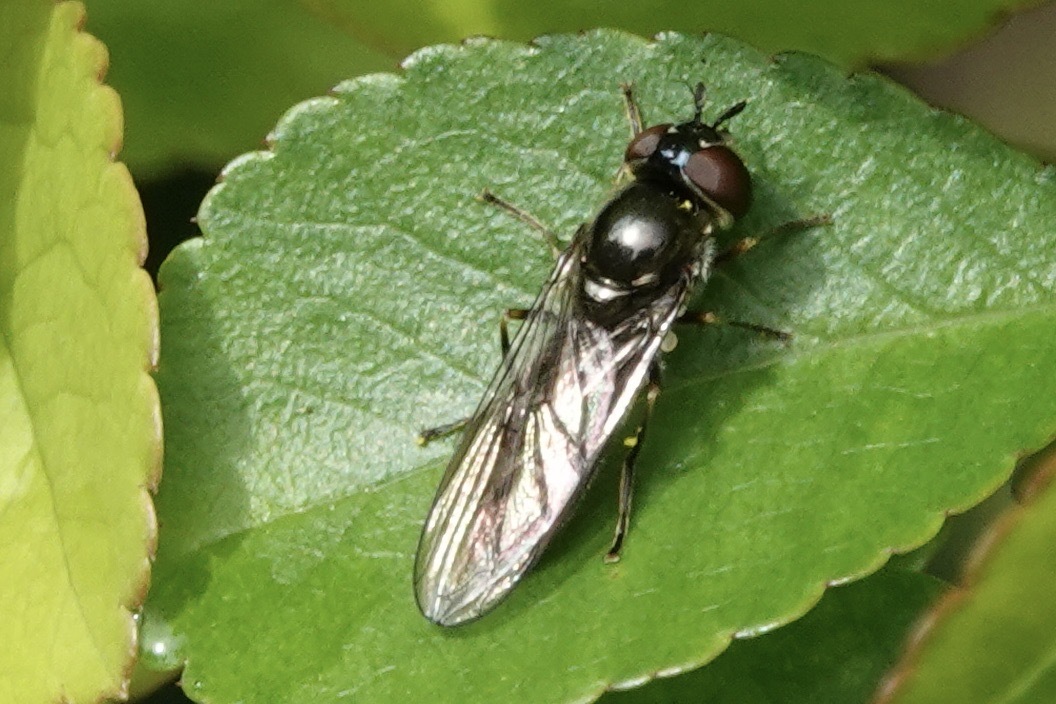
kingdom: Animalia
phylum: Arthropoda
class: Insecta
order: Diptera
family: Syrphidae
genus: Platycheirus
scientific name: Platycheirus albimanus
